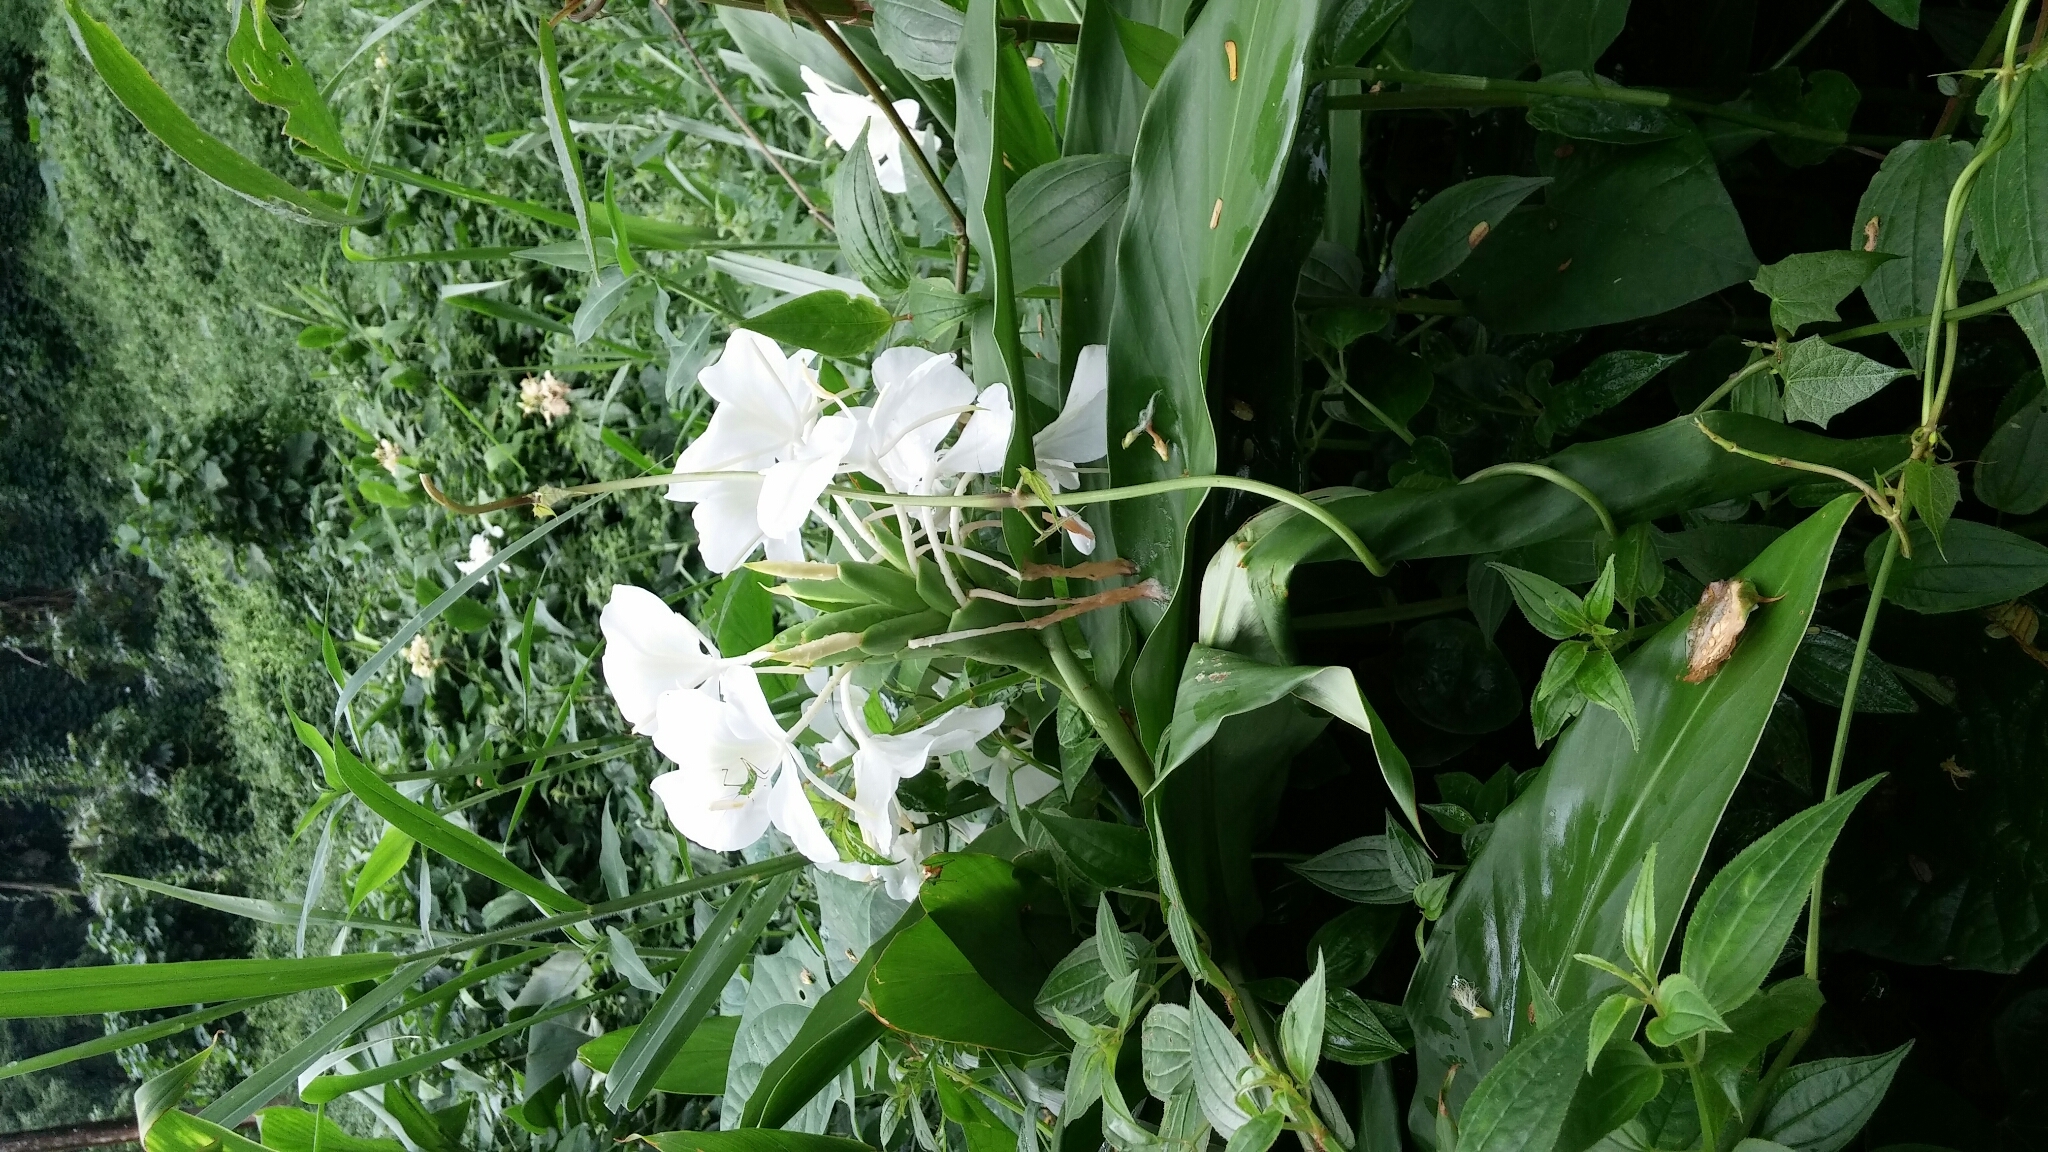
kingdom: Plantae
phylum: Tracheophyta
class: Liliopsida
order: Zingiberales
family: Zingiberaceae
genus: Hedychium
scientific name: Hedychium coronarium
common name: White garland-lily
